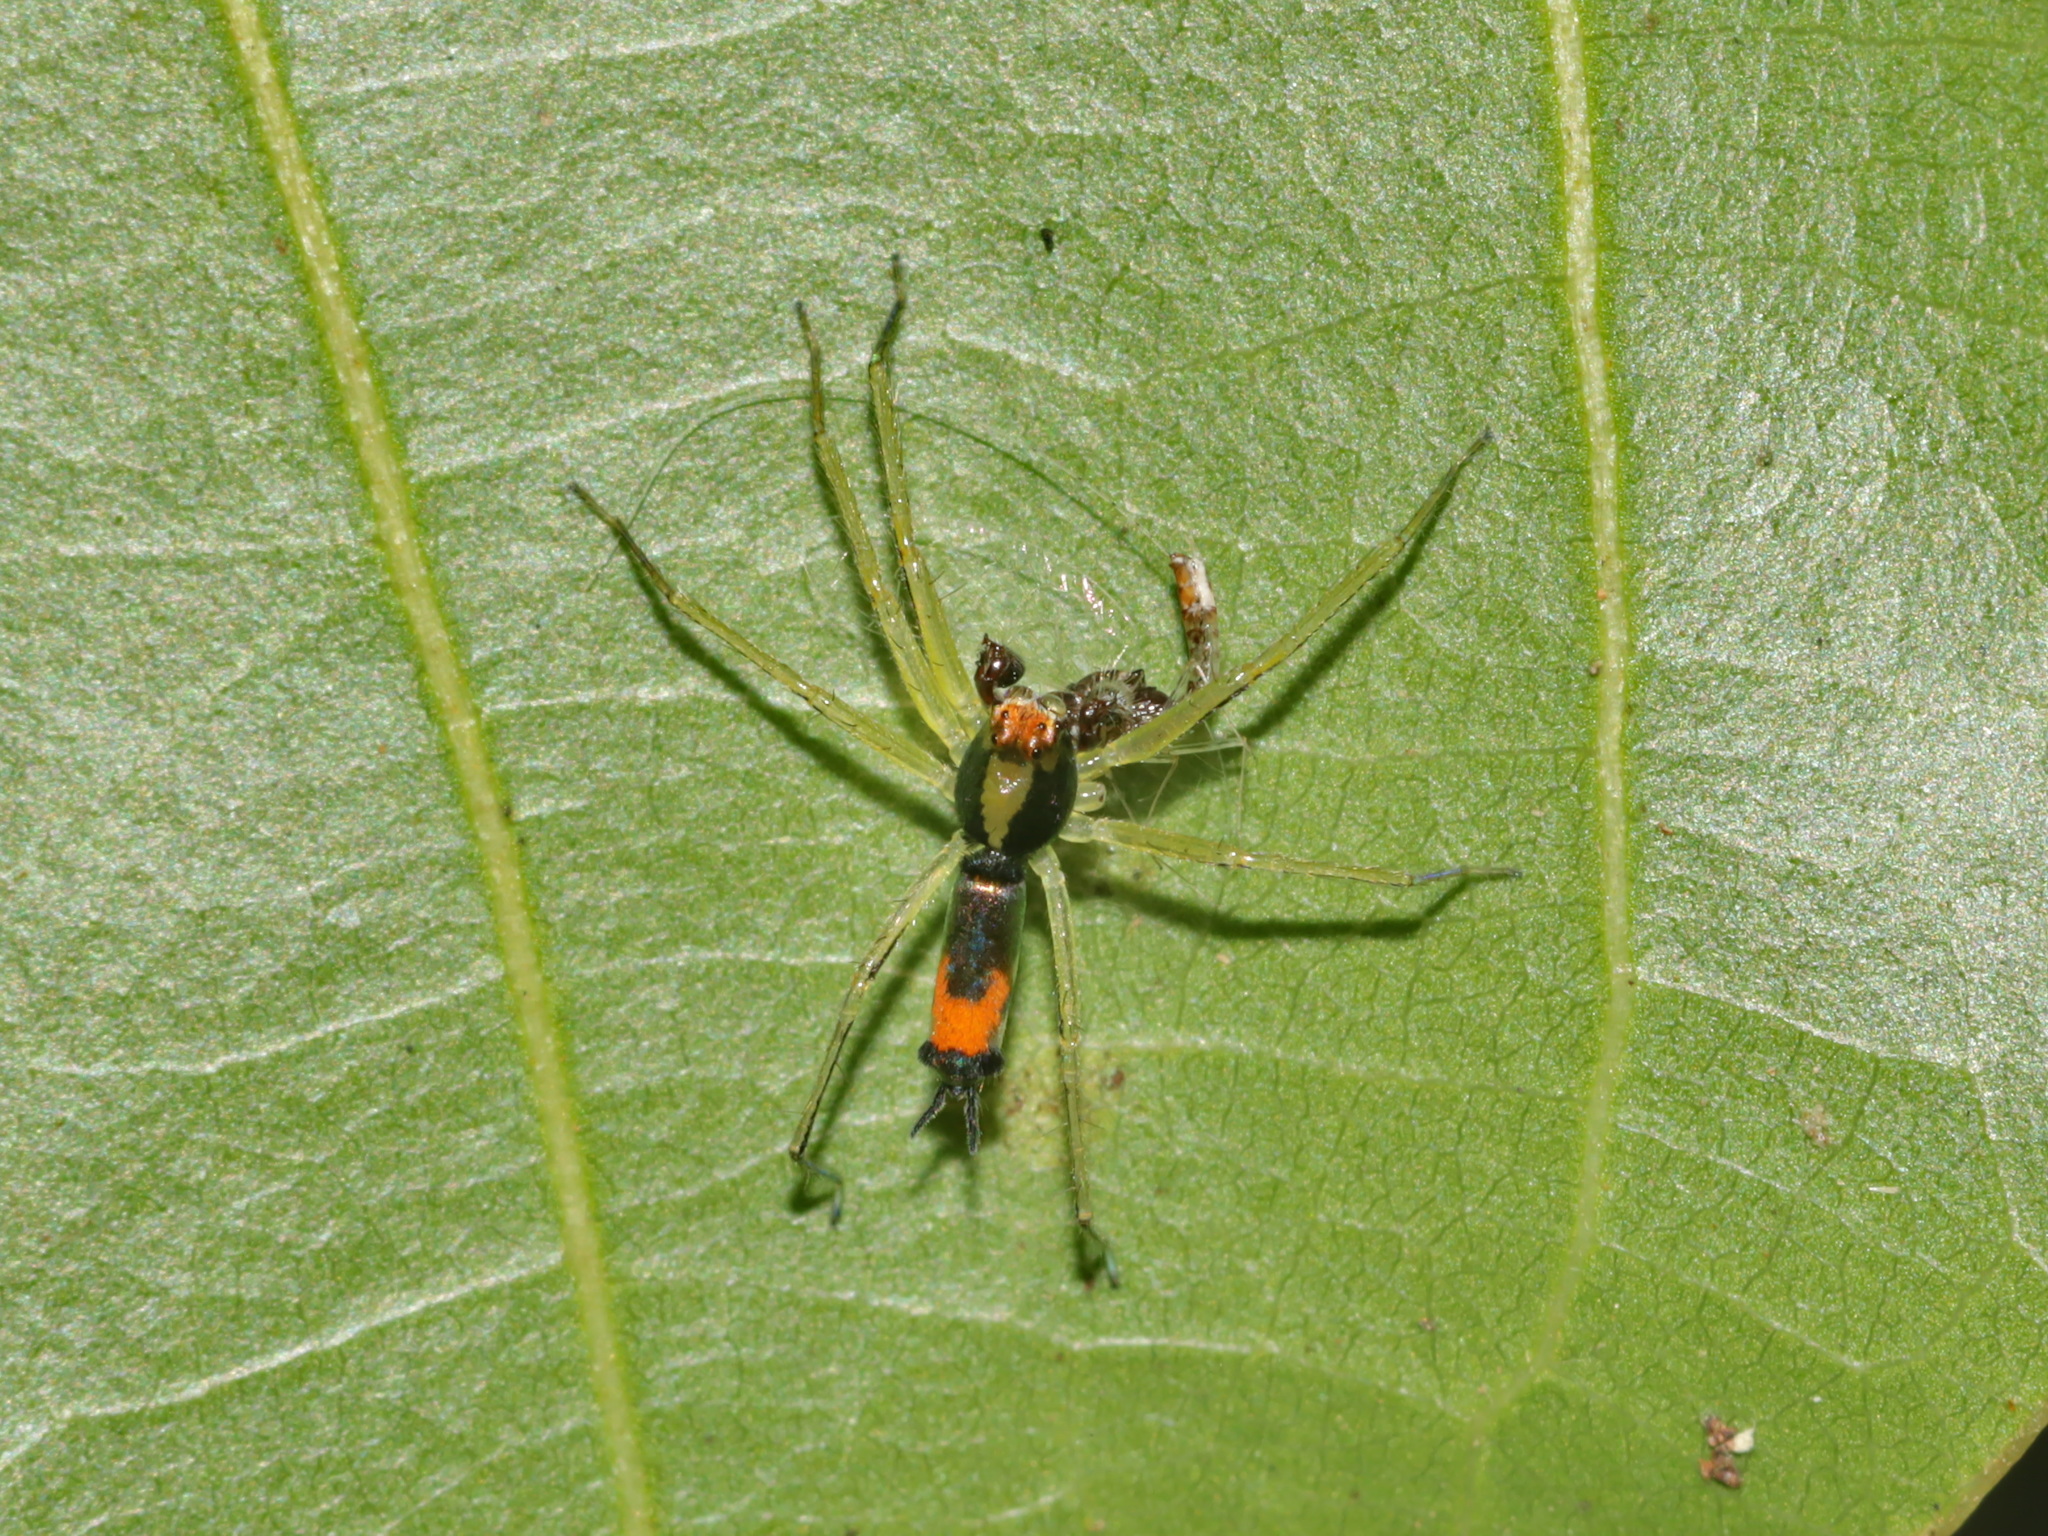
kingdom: Animalia
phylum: Arthropoda
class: Arachnida
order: Araneae
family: Salticidae
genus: Asemonea
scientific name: Asemonea tenuipes
